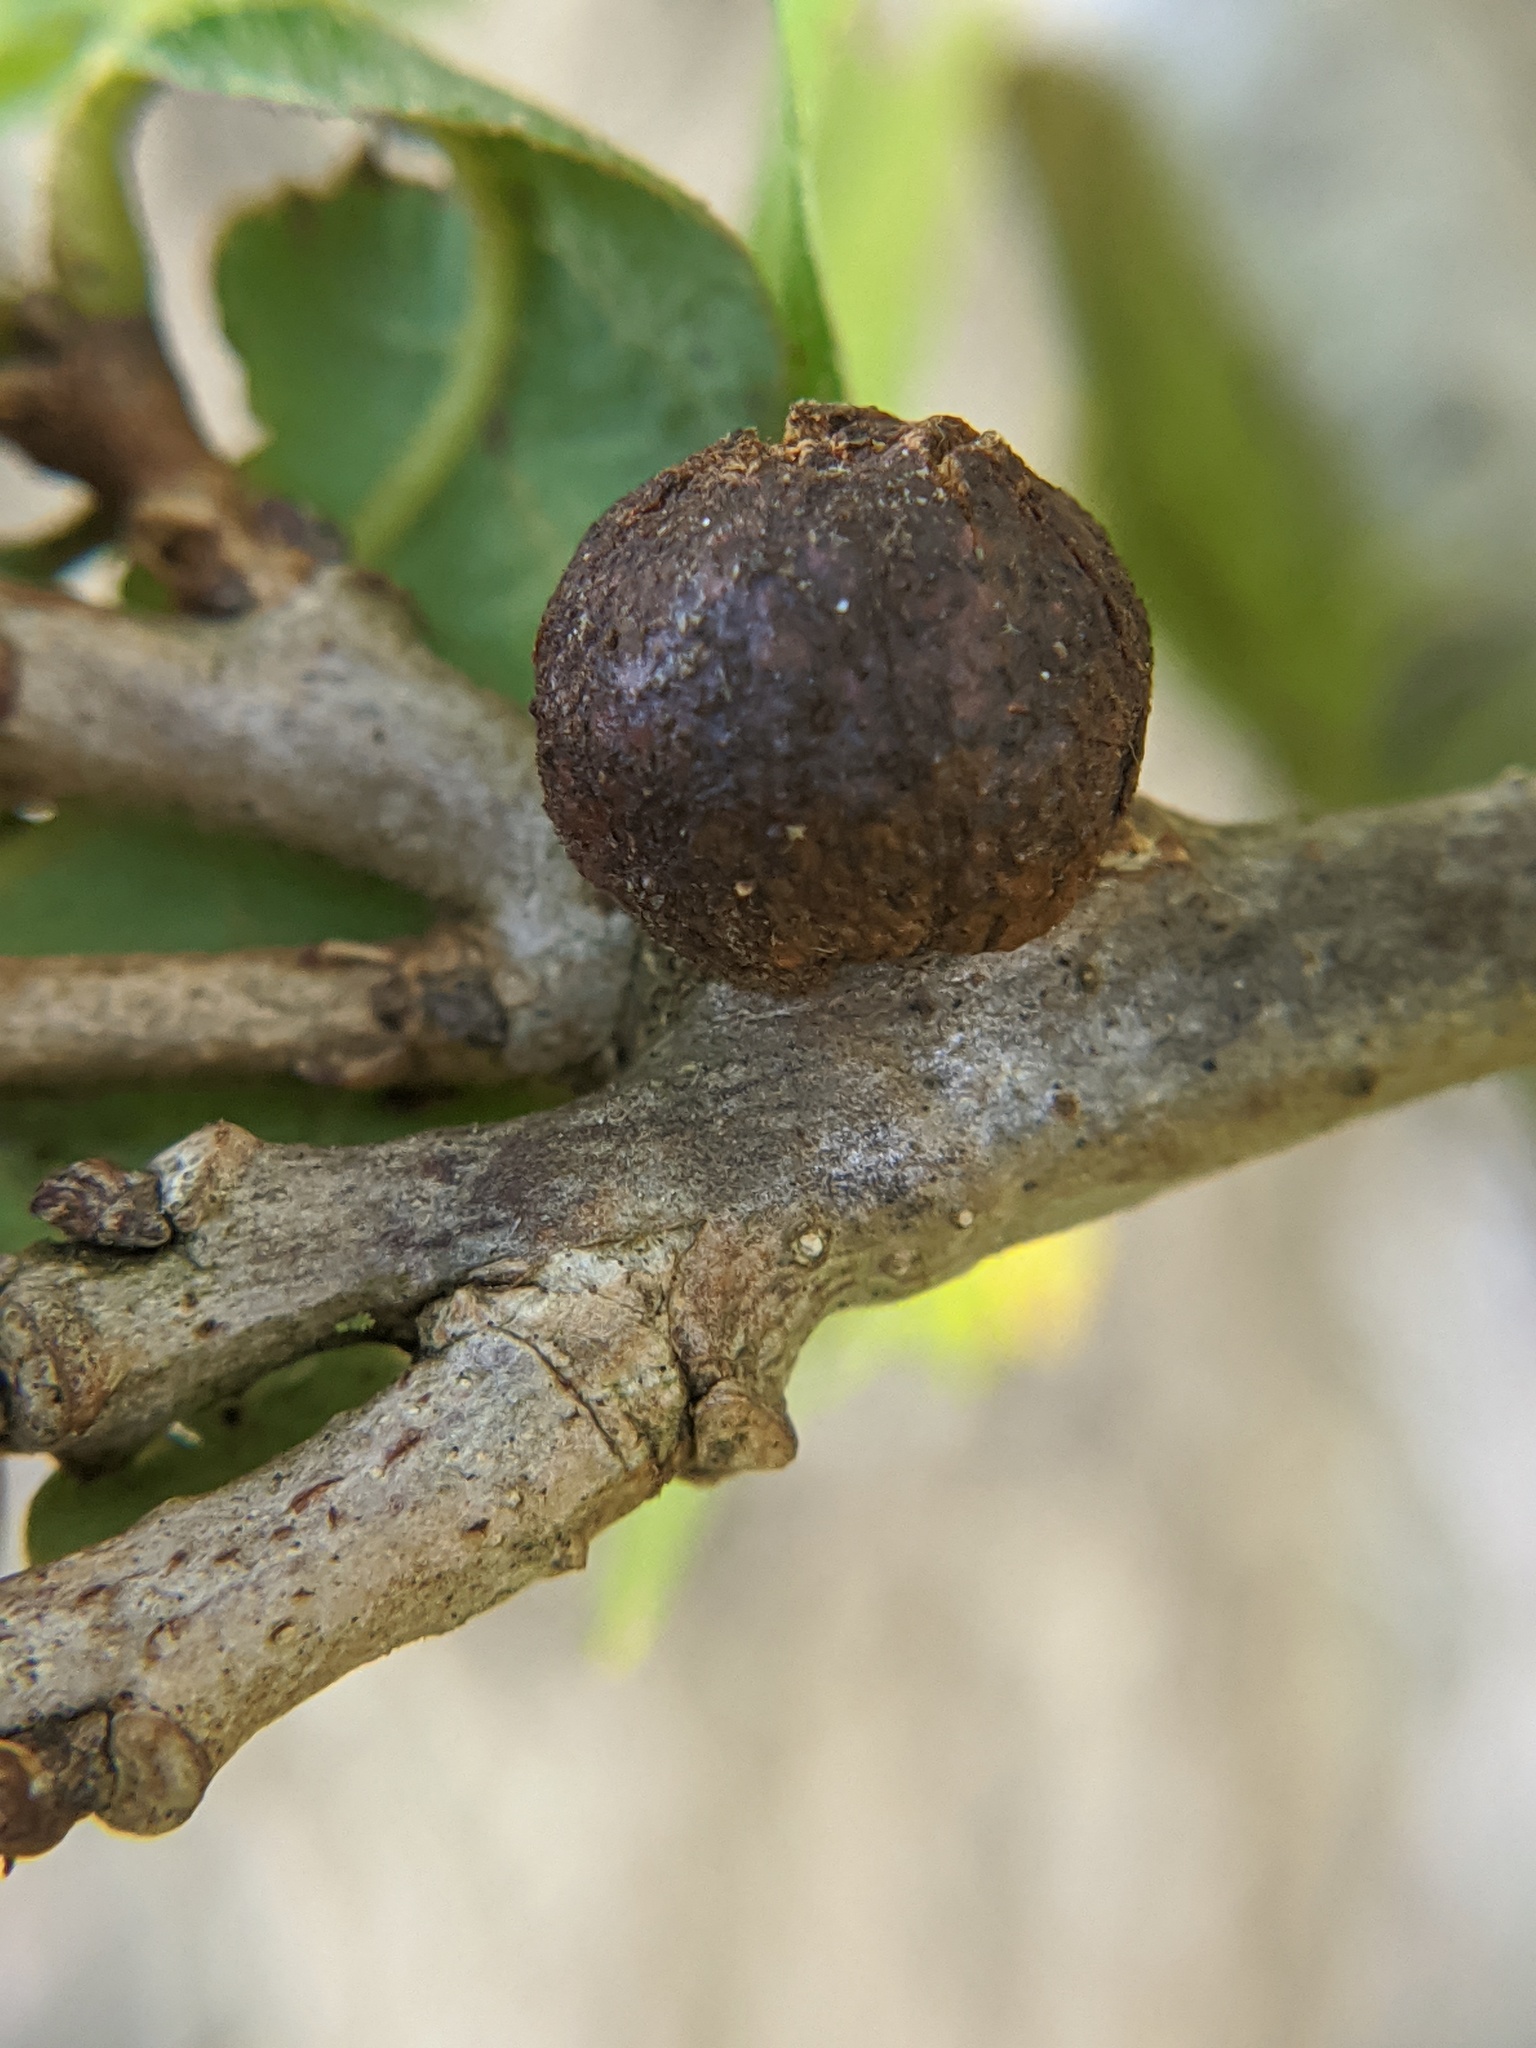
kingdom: Animalia
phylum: Arthropoda
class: Insecta
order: Hymenoptera
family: Cynipidae
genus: Disholcaspis
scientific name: Disholcaspis
